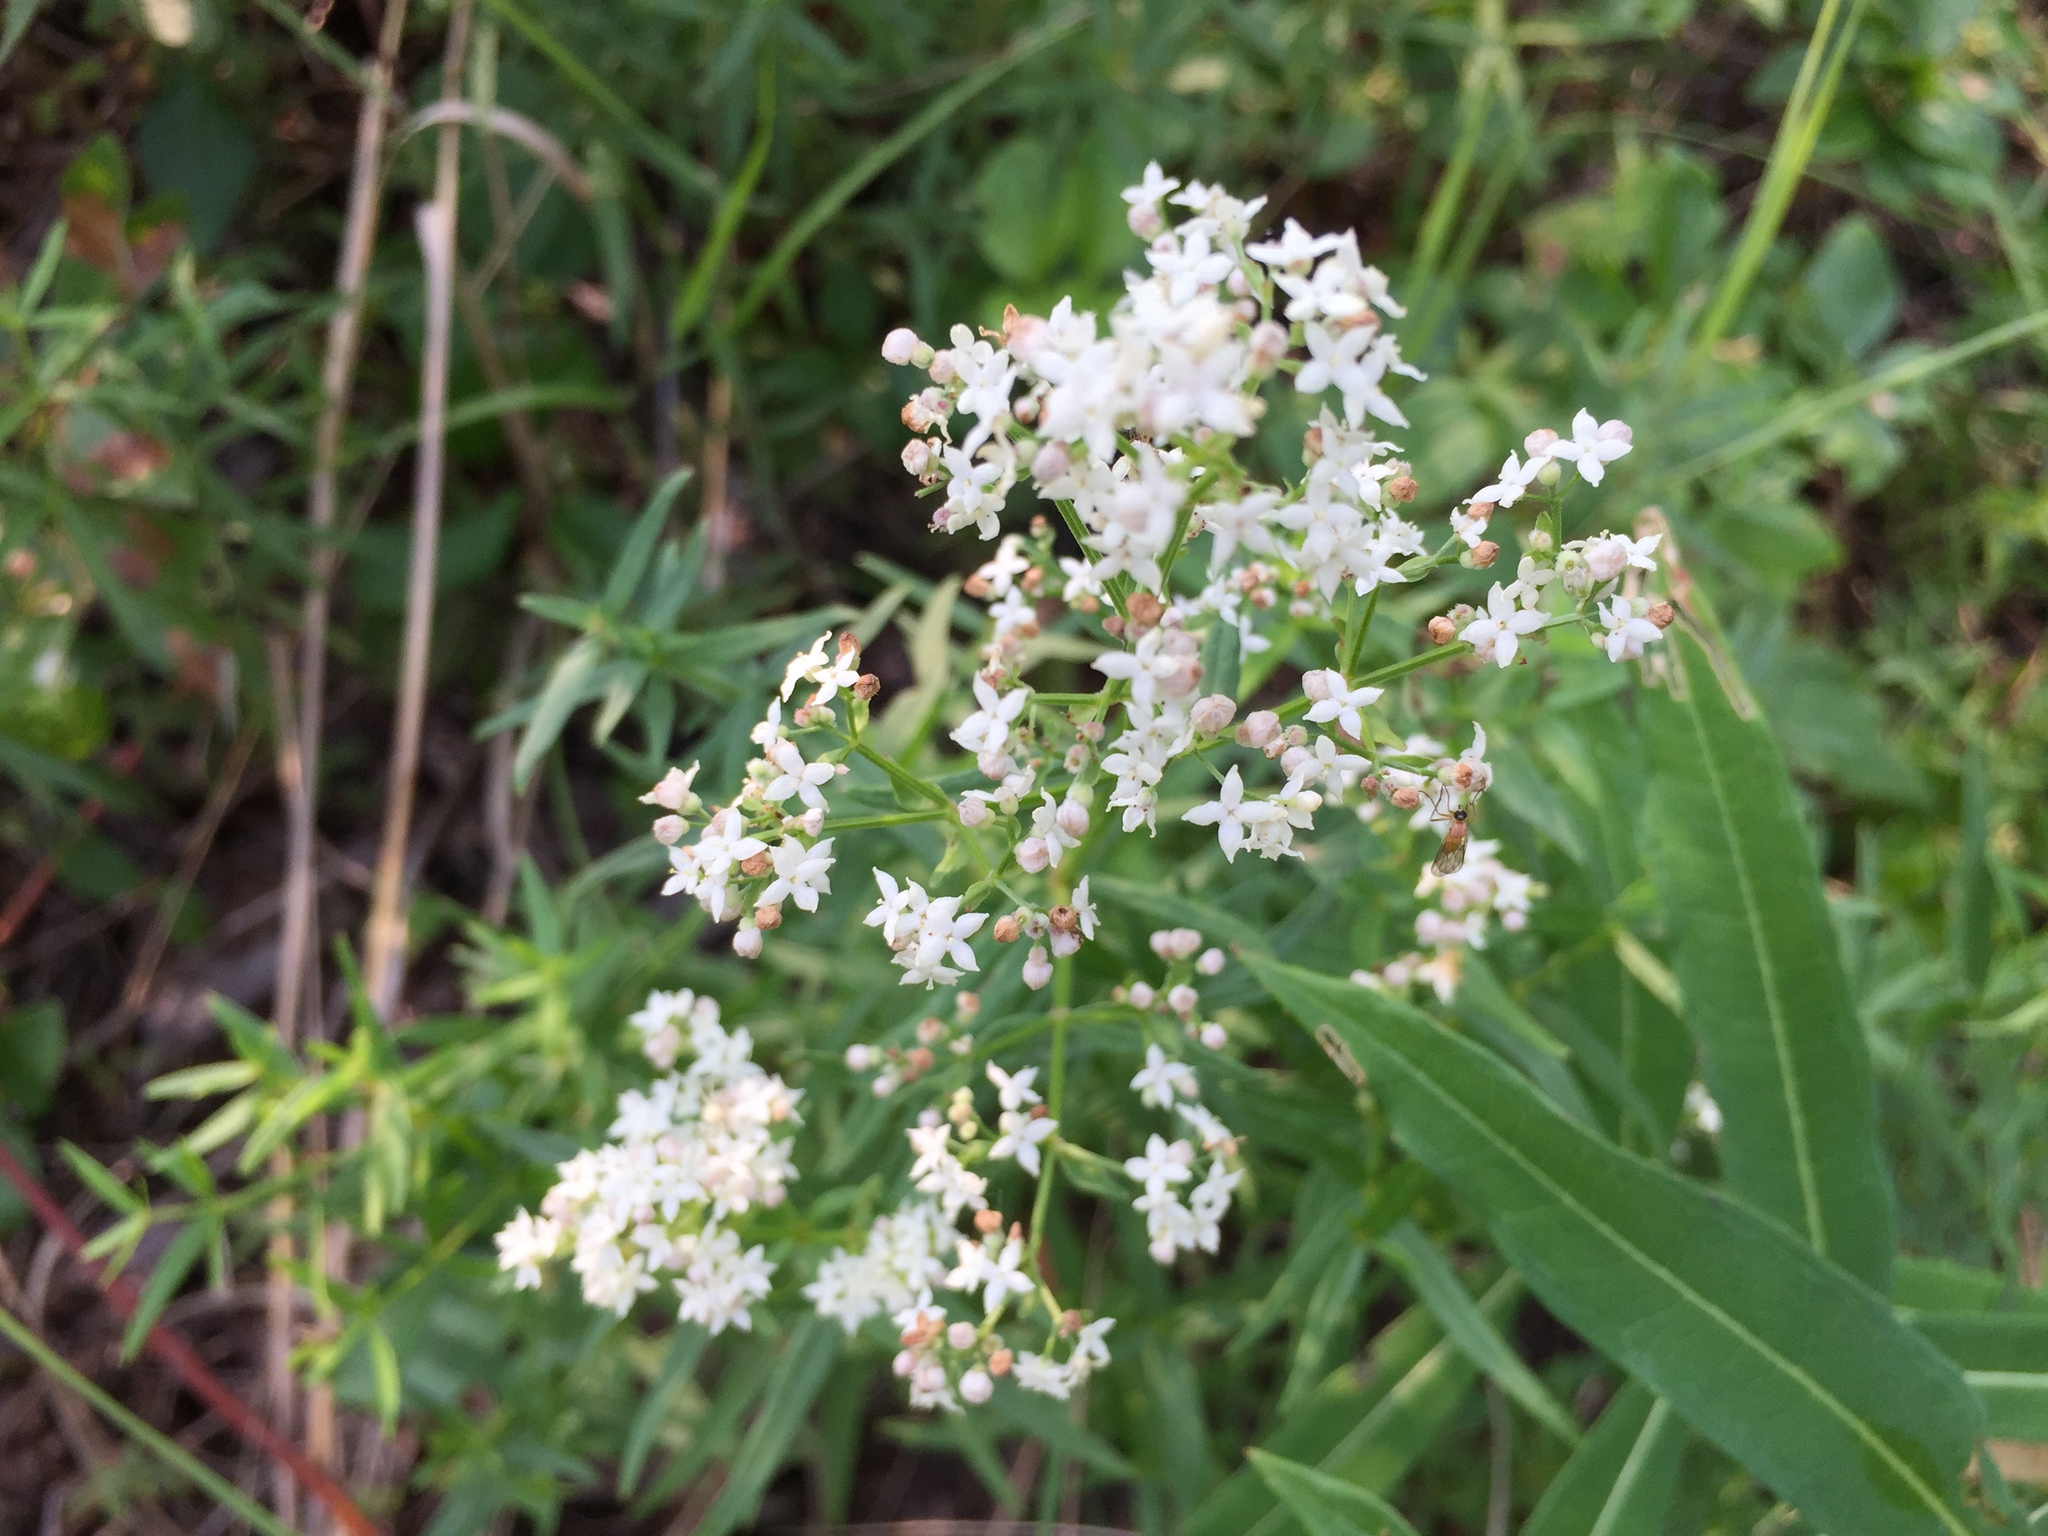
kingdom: Plantae
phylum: Tracheophyta
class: Magnoliopsida
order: Gentianales
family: Rubiaceae
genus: Galium
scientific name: Galium boreale
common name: Northern bedstraw
